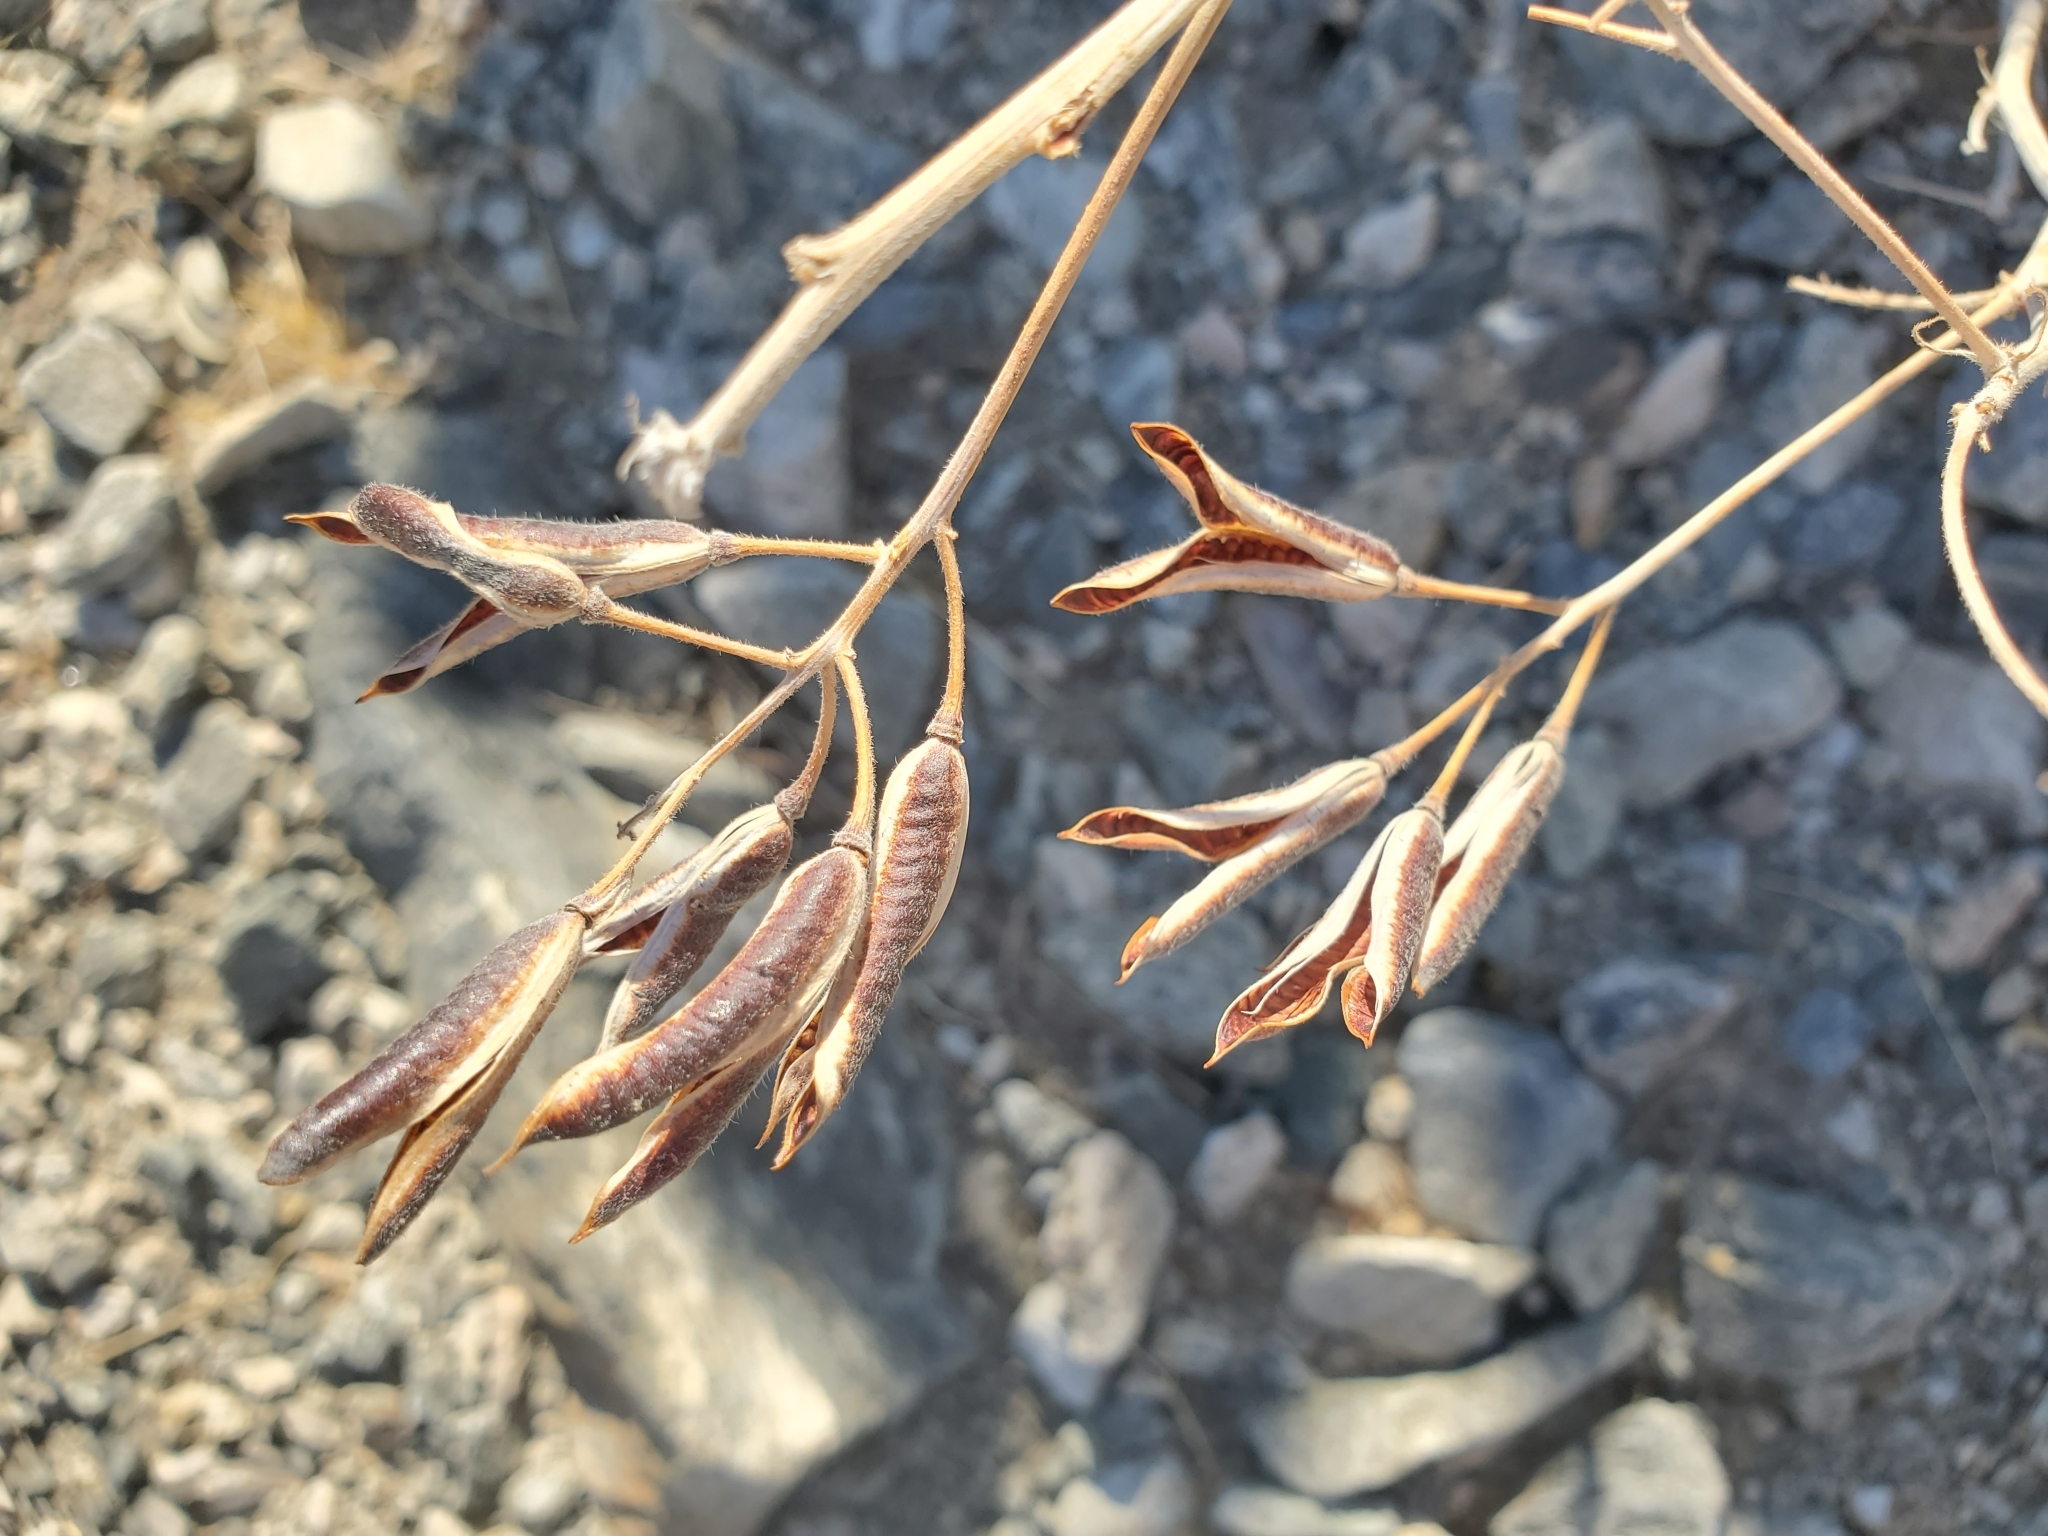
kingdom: Plantae
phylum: Tracheophyta
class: Magnoliopsida
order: Fabales
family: Fabaceae
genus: Senna
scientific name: Senna covesii
